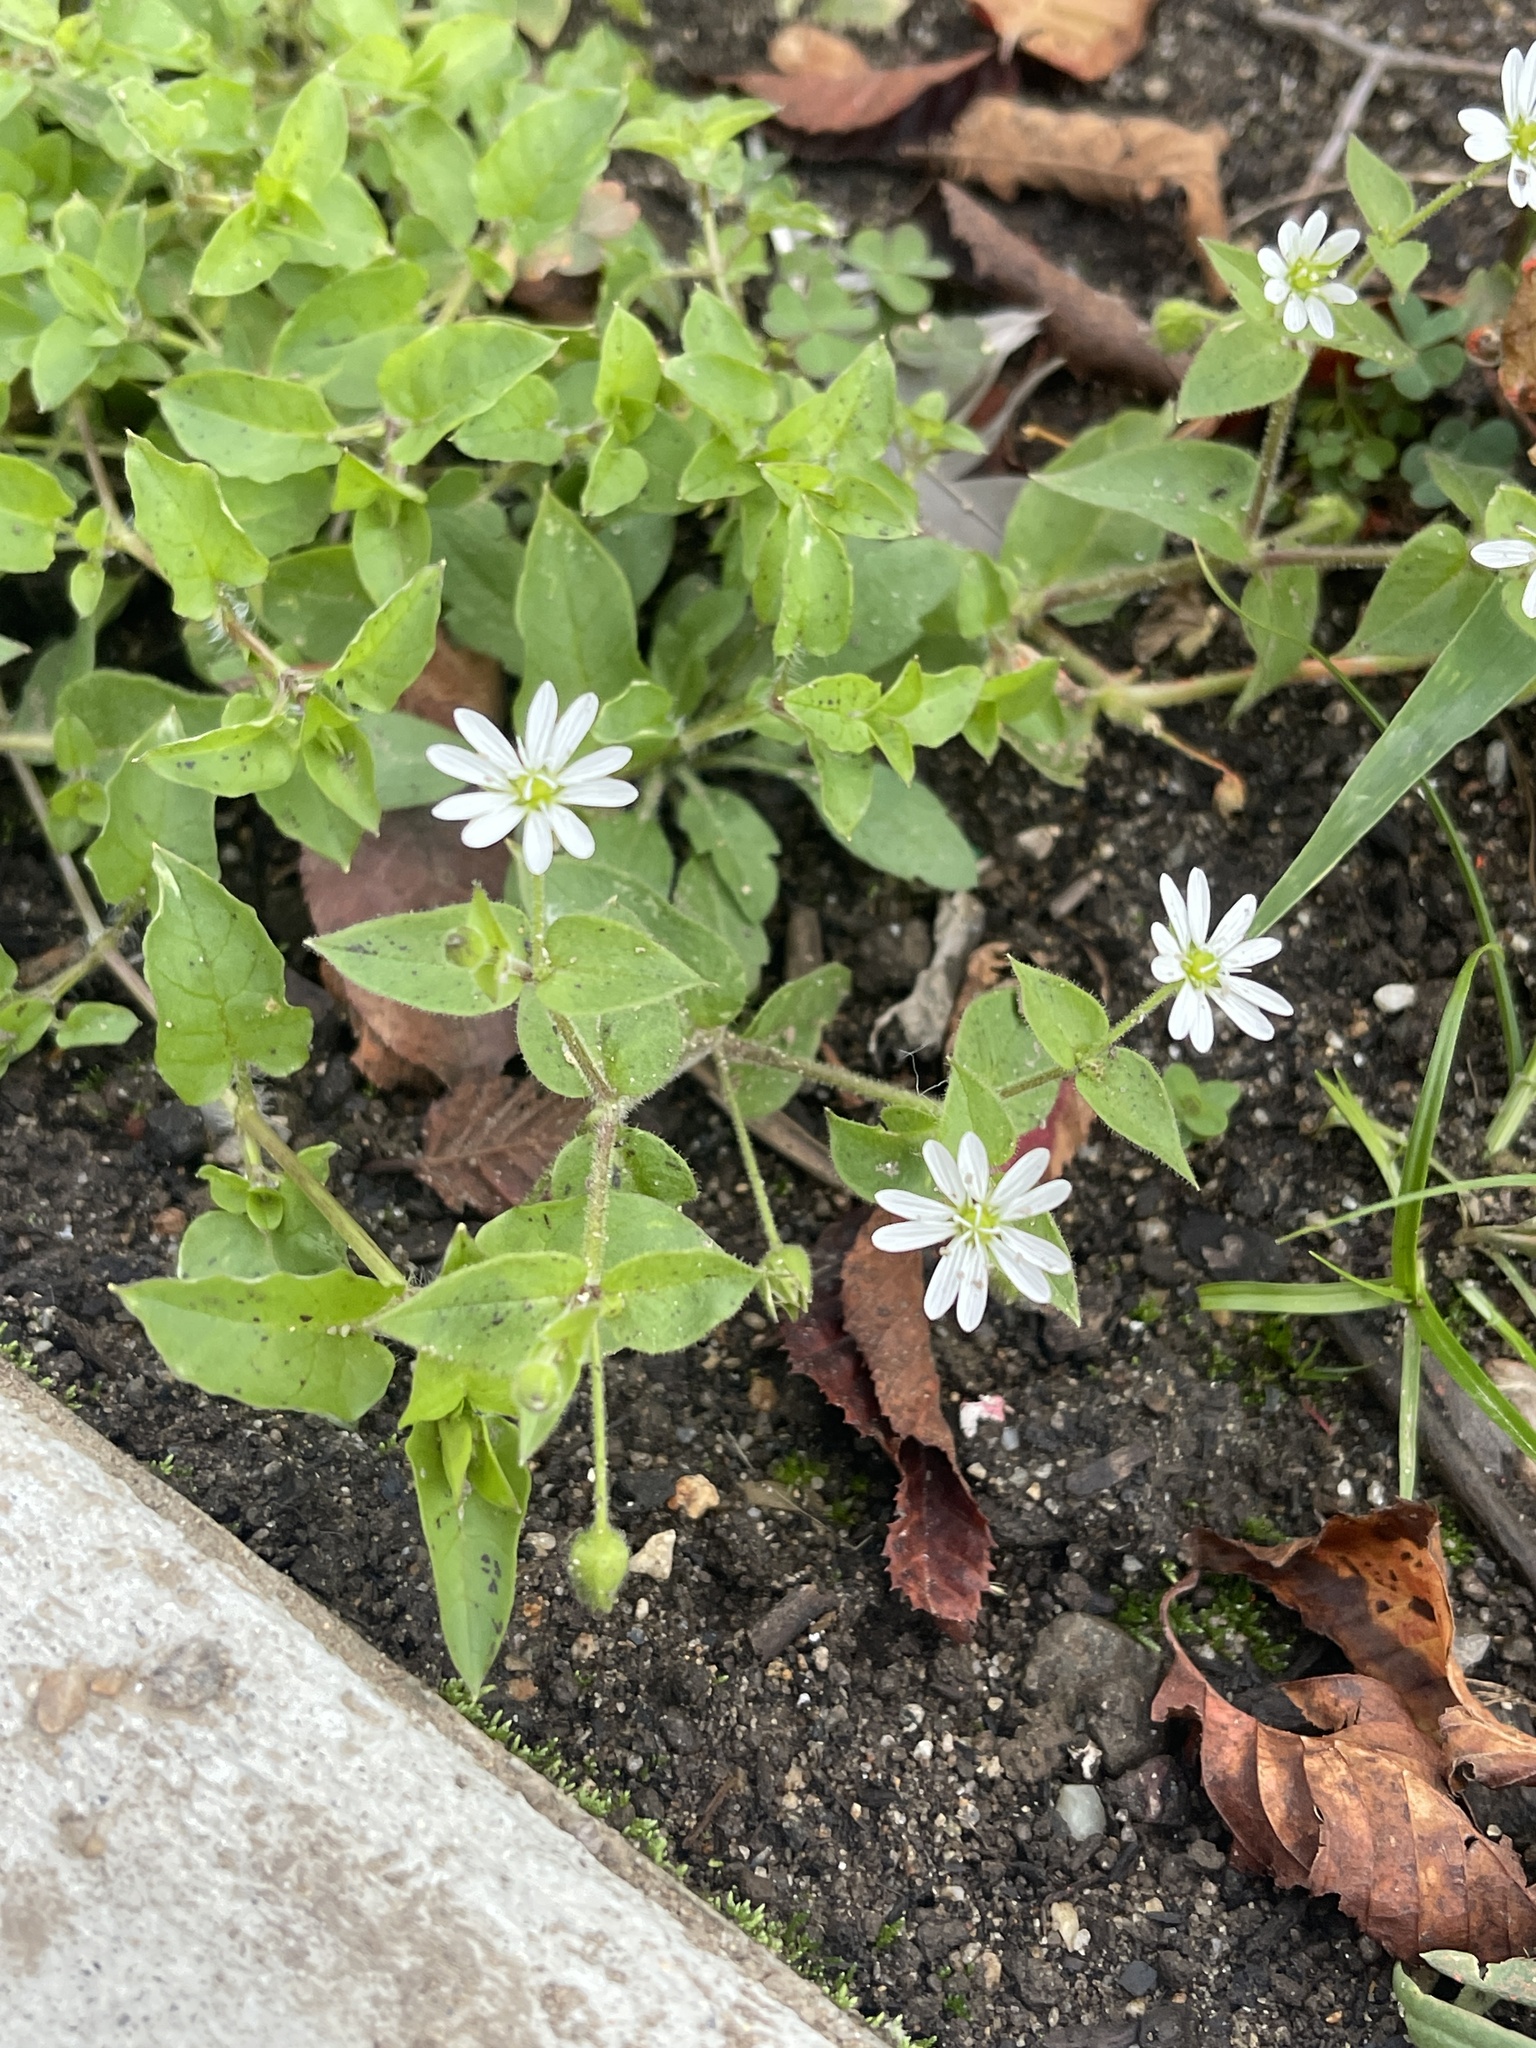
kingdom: Plantae
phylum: Tracheophyta
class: Magnoliopsida
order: Caryophyllales
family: Caryophyllaceae
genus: Stellaria
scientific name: Stellaria aquatica
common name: Water chickweed
